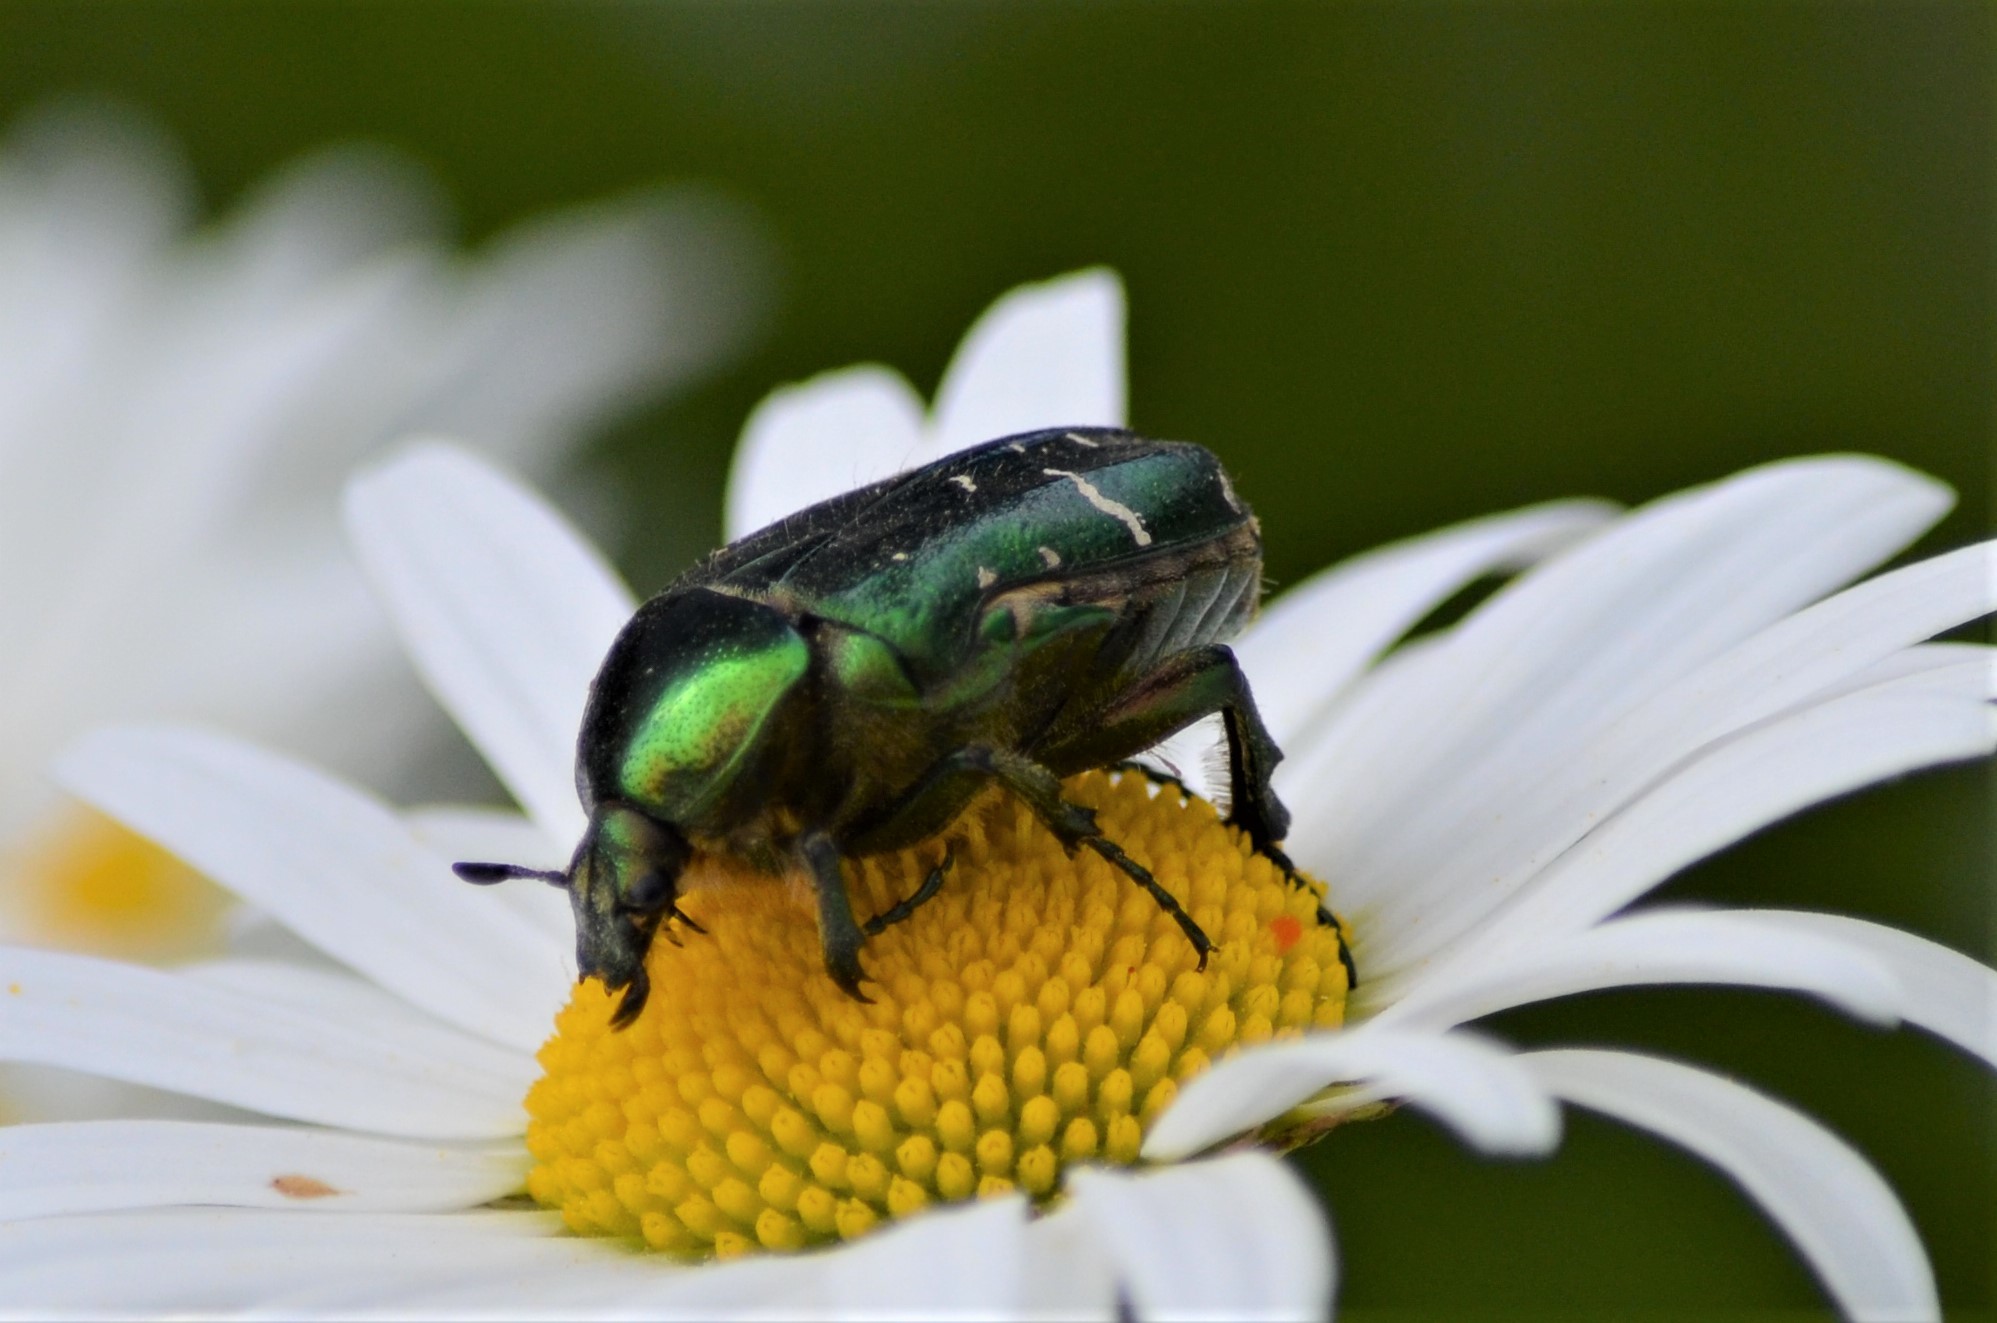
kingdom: Animalia
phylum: Arthropoda
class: Insecta
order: Coleoptera
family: Scarabaeidae
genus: Cetonia
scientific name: Cetonia aurata
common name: Rose chafer
